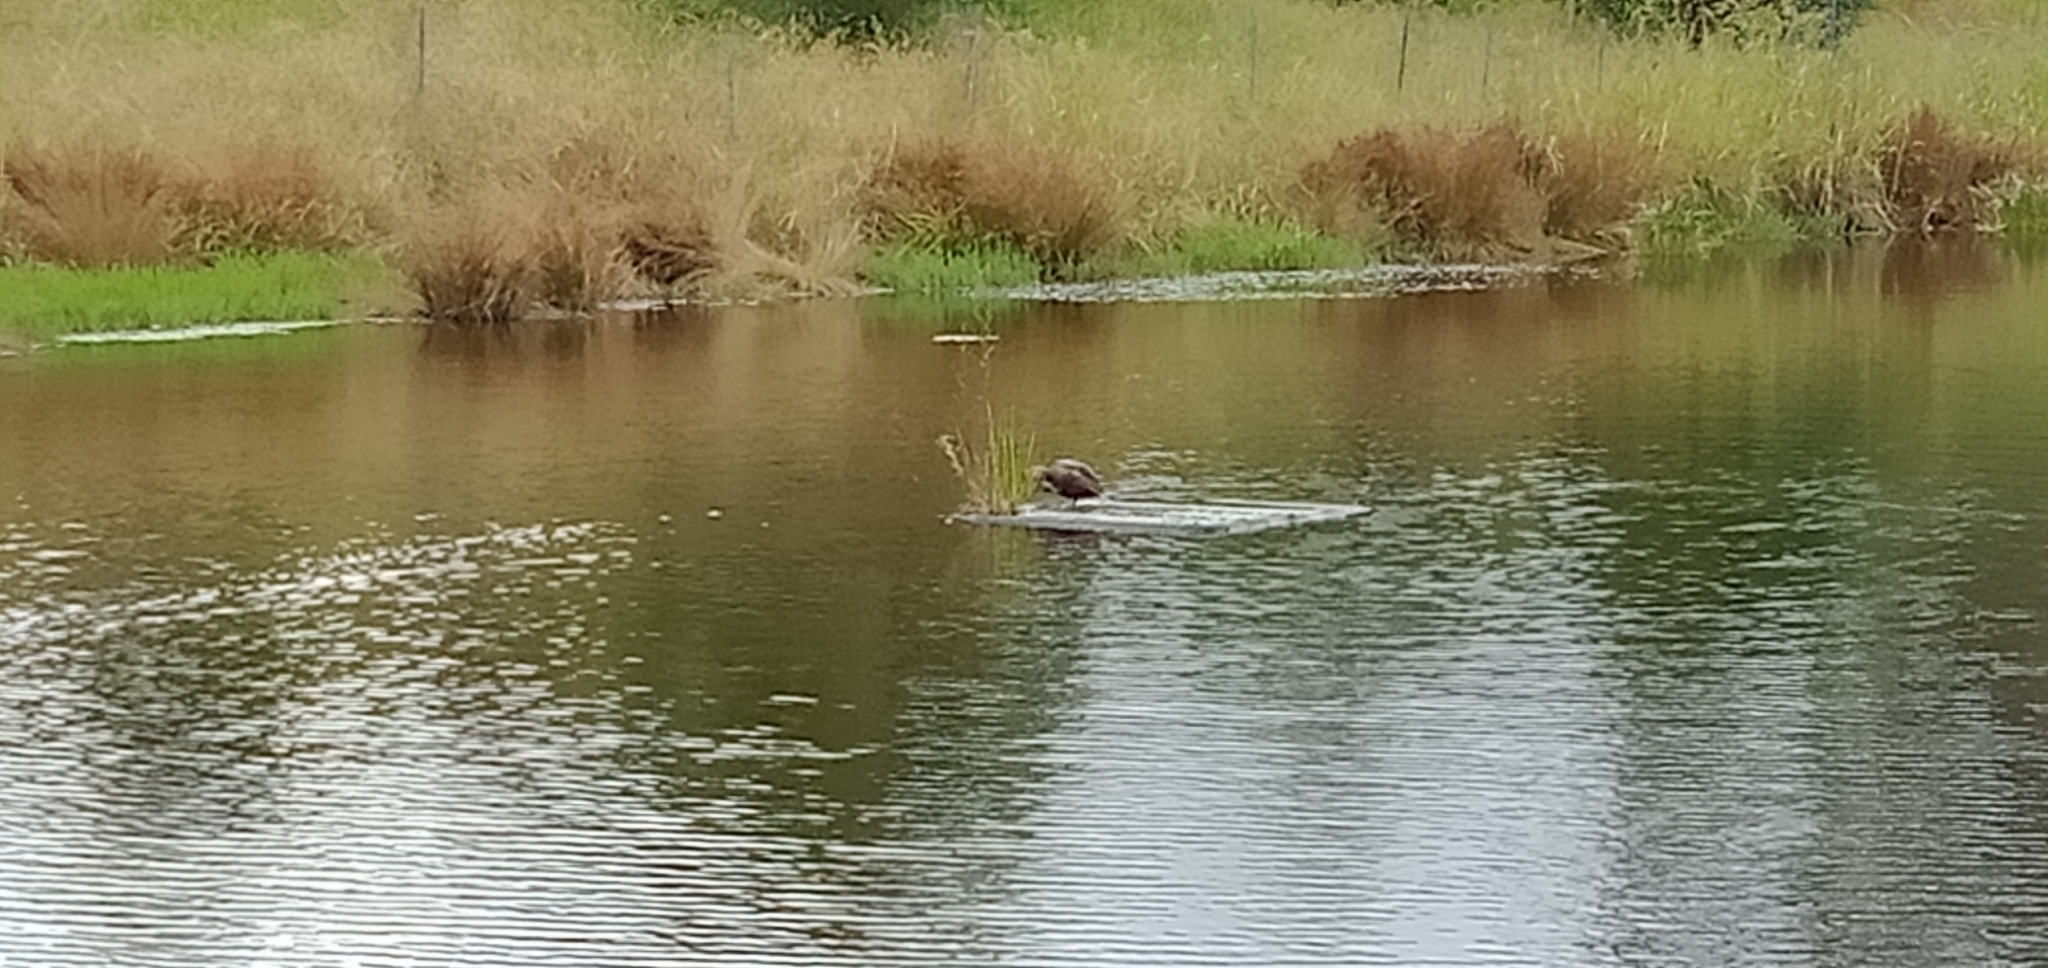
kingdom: Animalia
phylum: Chordata
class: Aves
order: Anseriformes
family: Anatidae
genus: Anas
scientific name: Anas superciliosa
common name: Pacific black duck
